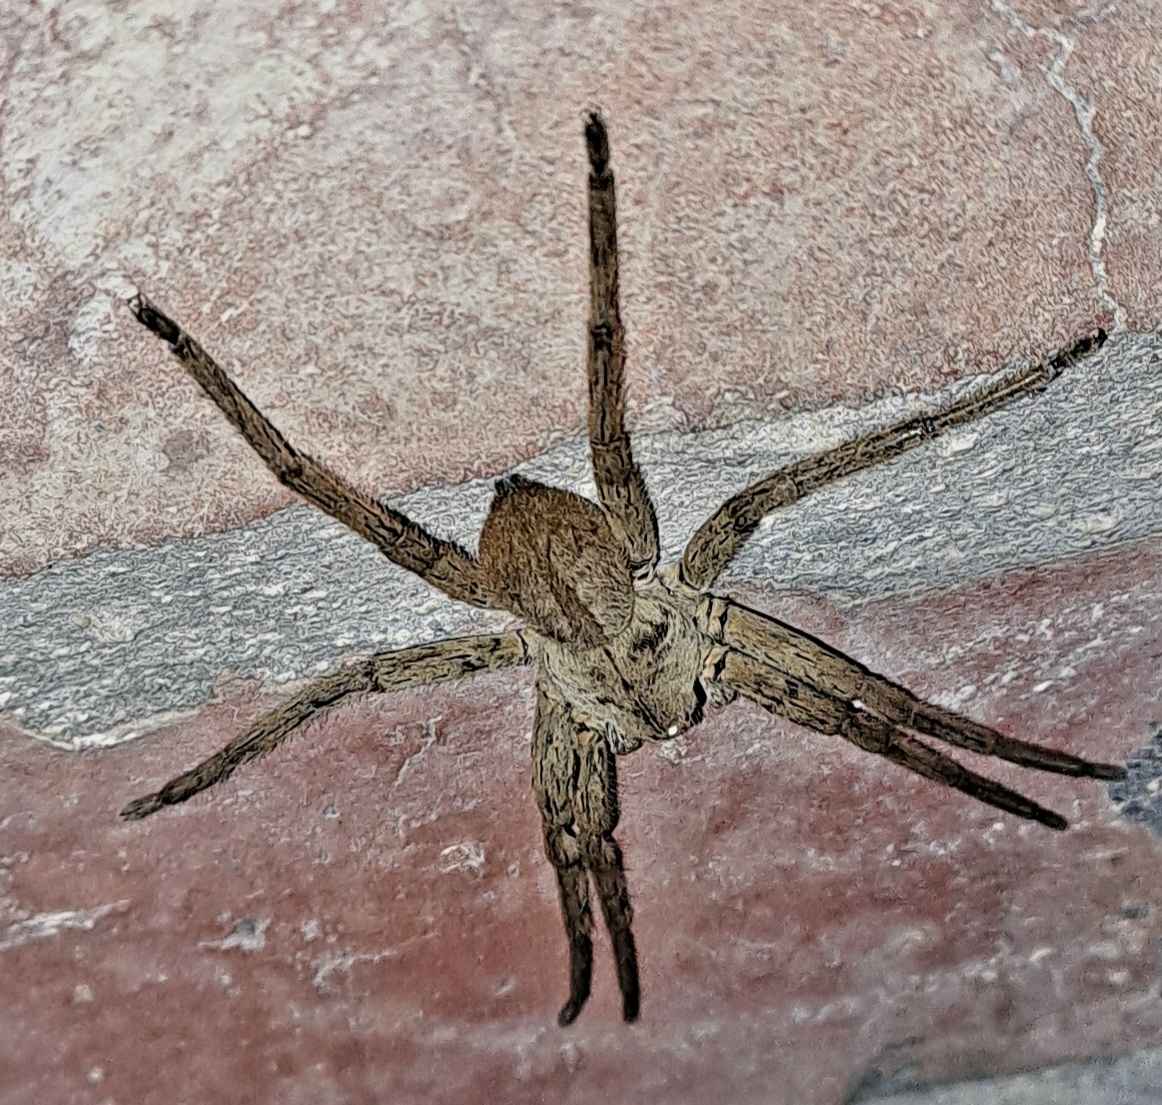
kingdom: Animalia
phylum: Arthropoda
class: Arachnida
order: Araneae
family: Sparassidae
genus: Palystes
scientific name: Palystes castaneus
